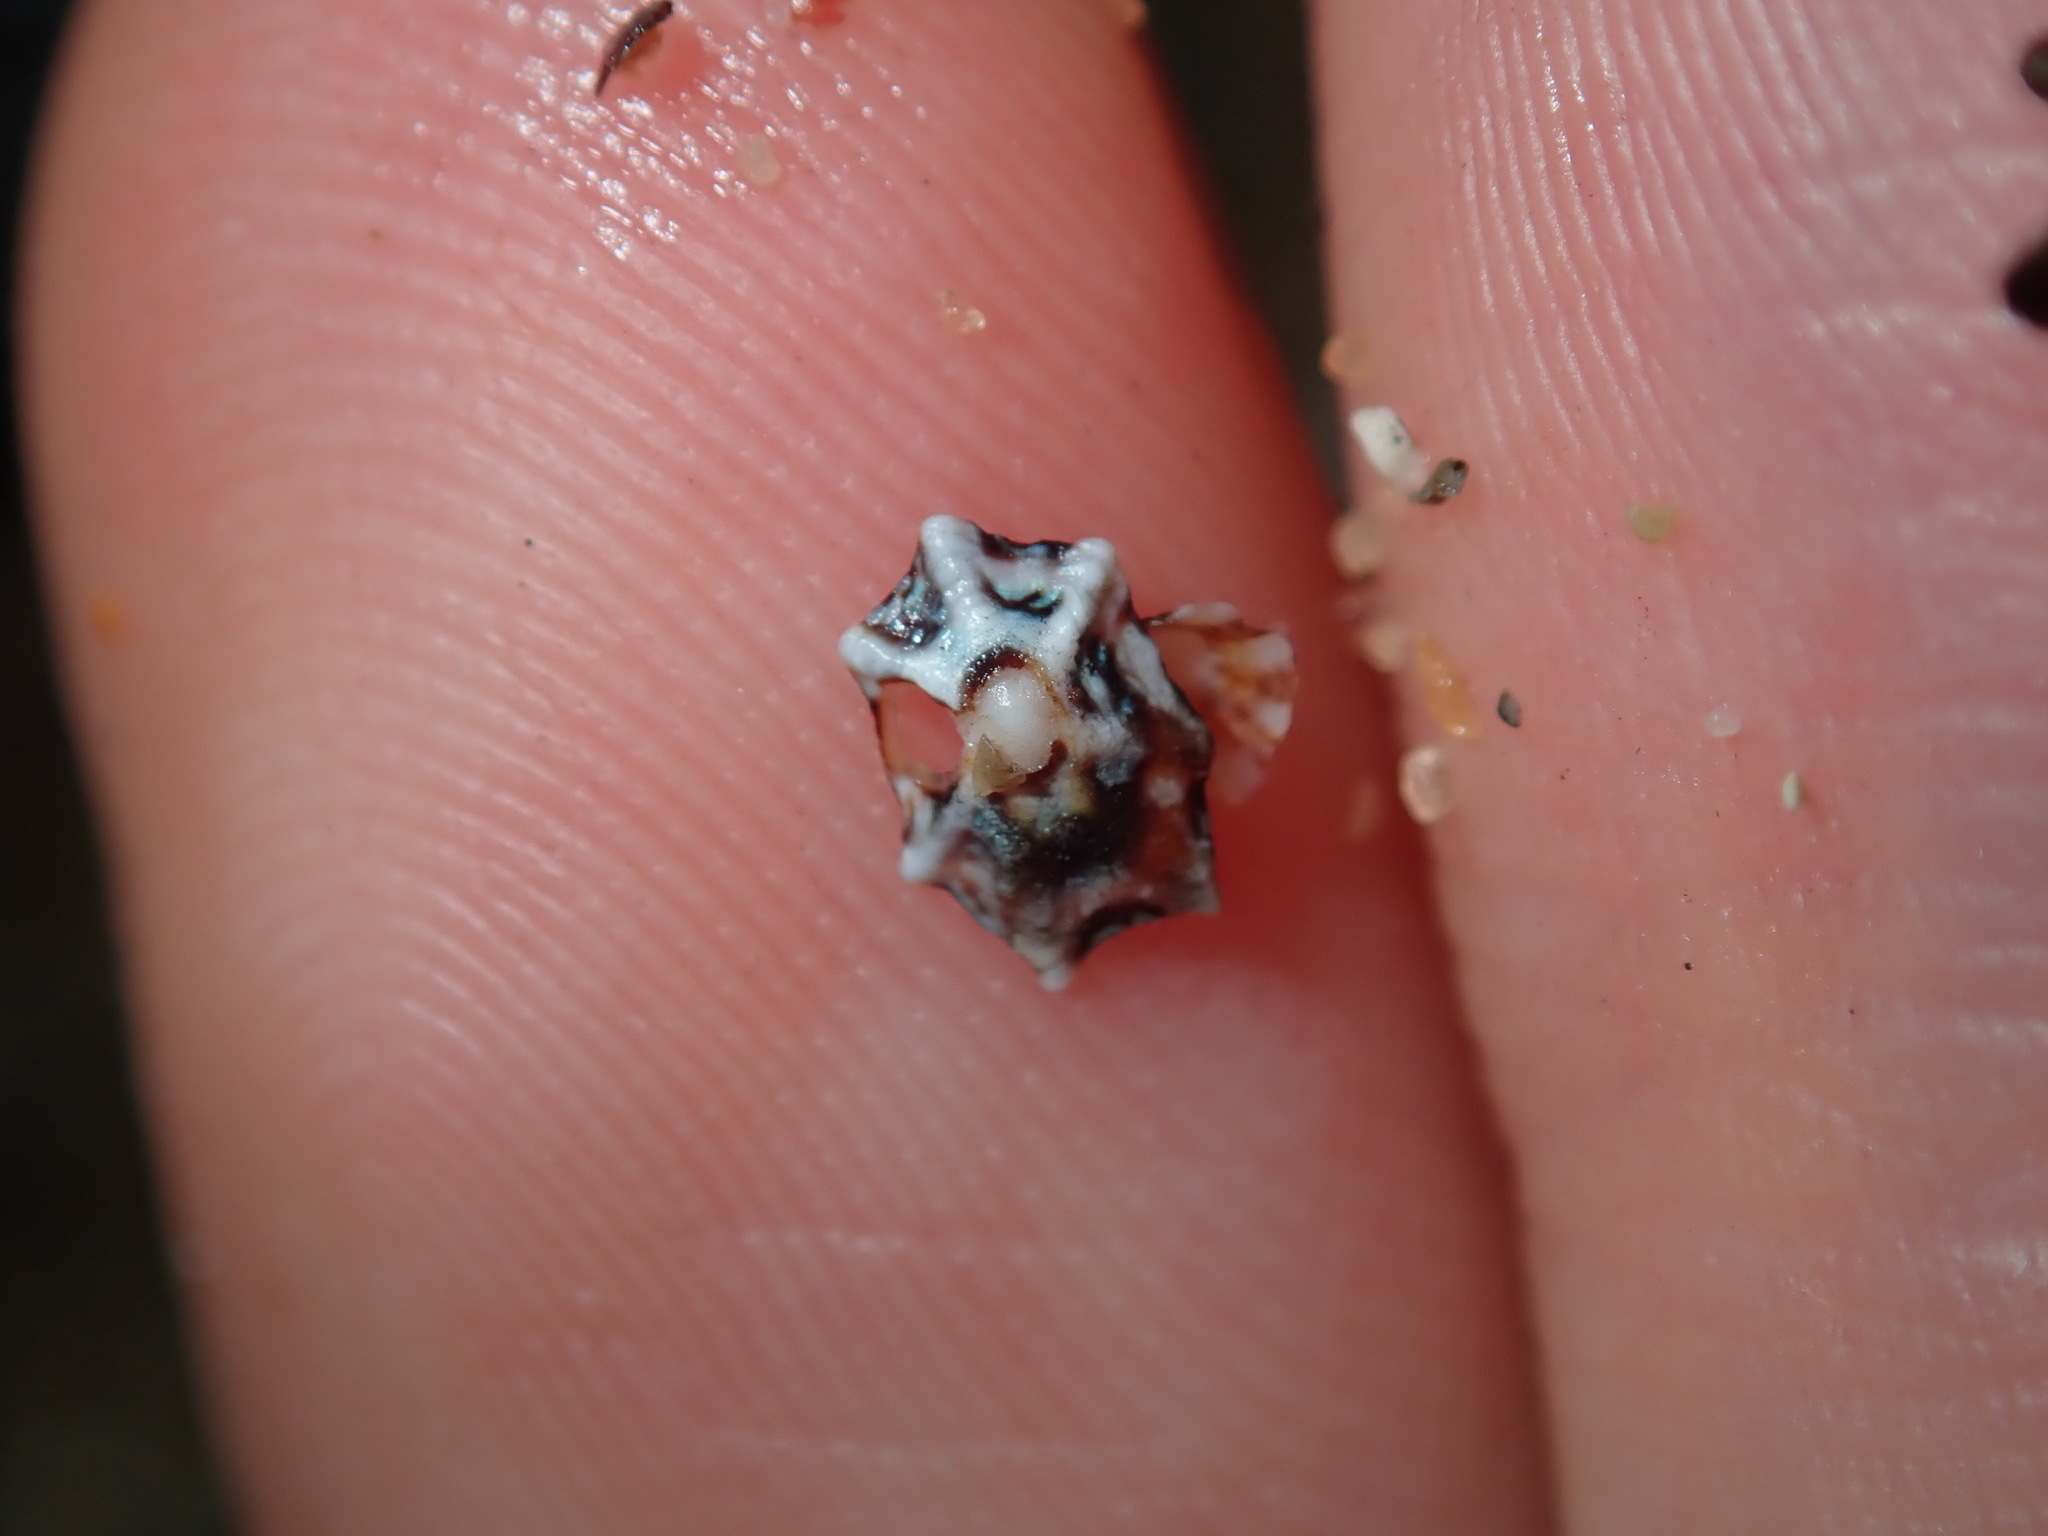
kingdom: Animalia
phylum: Mollusca
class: Gastropoda
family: Lottiidae
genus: Patelloida
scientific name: Patelloida alticostata
